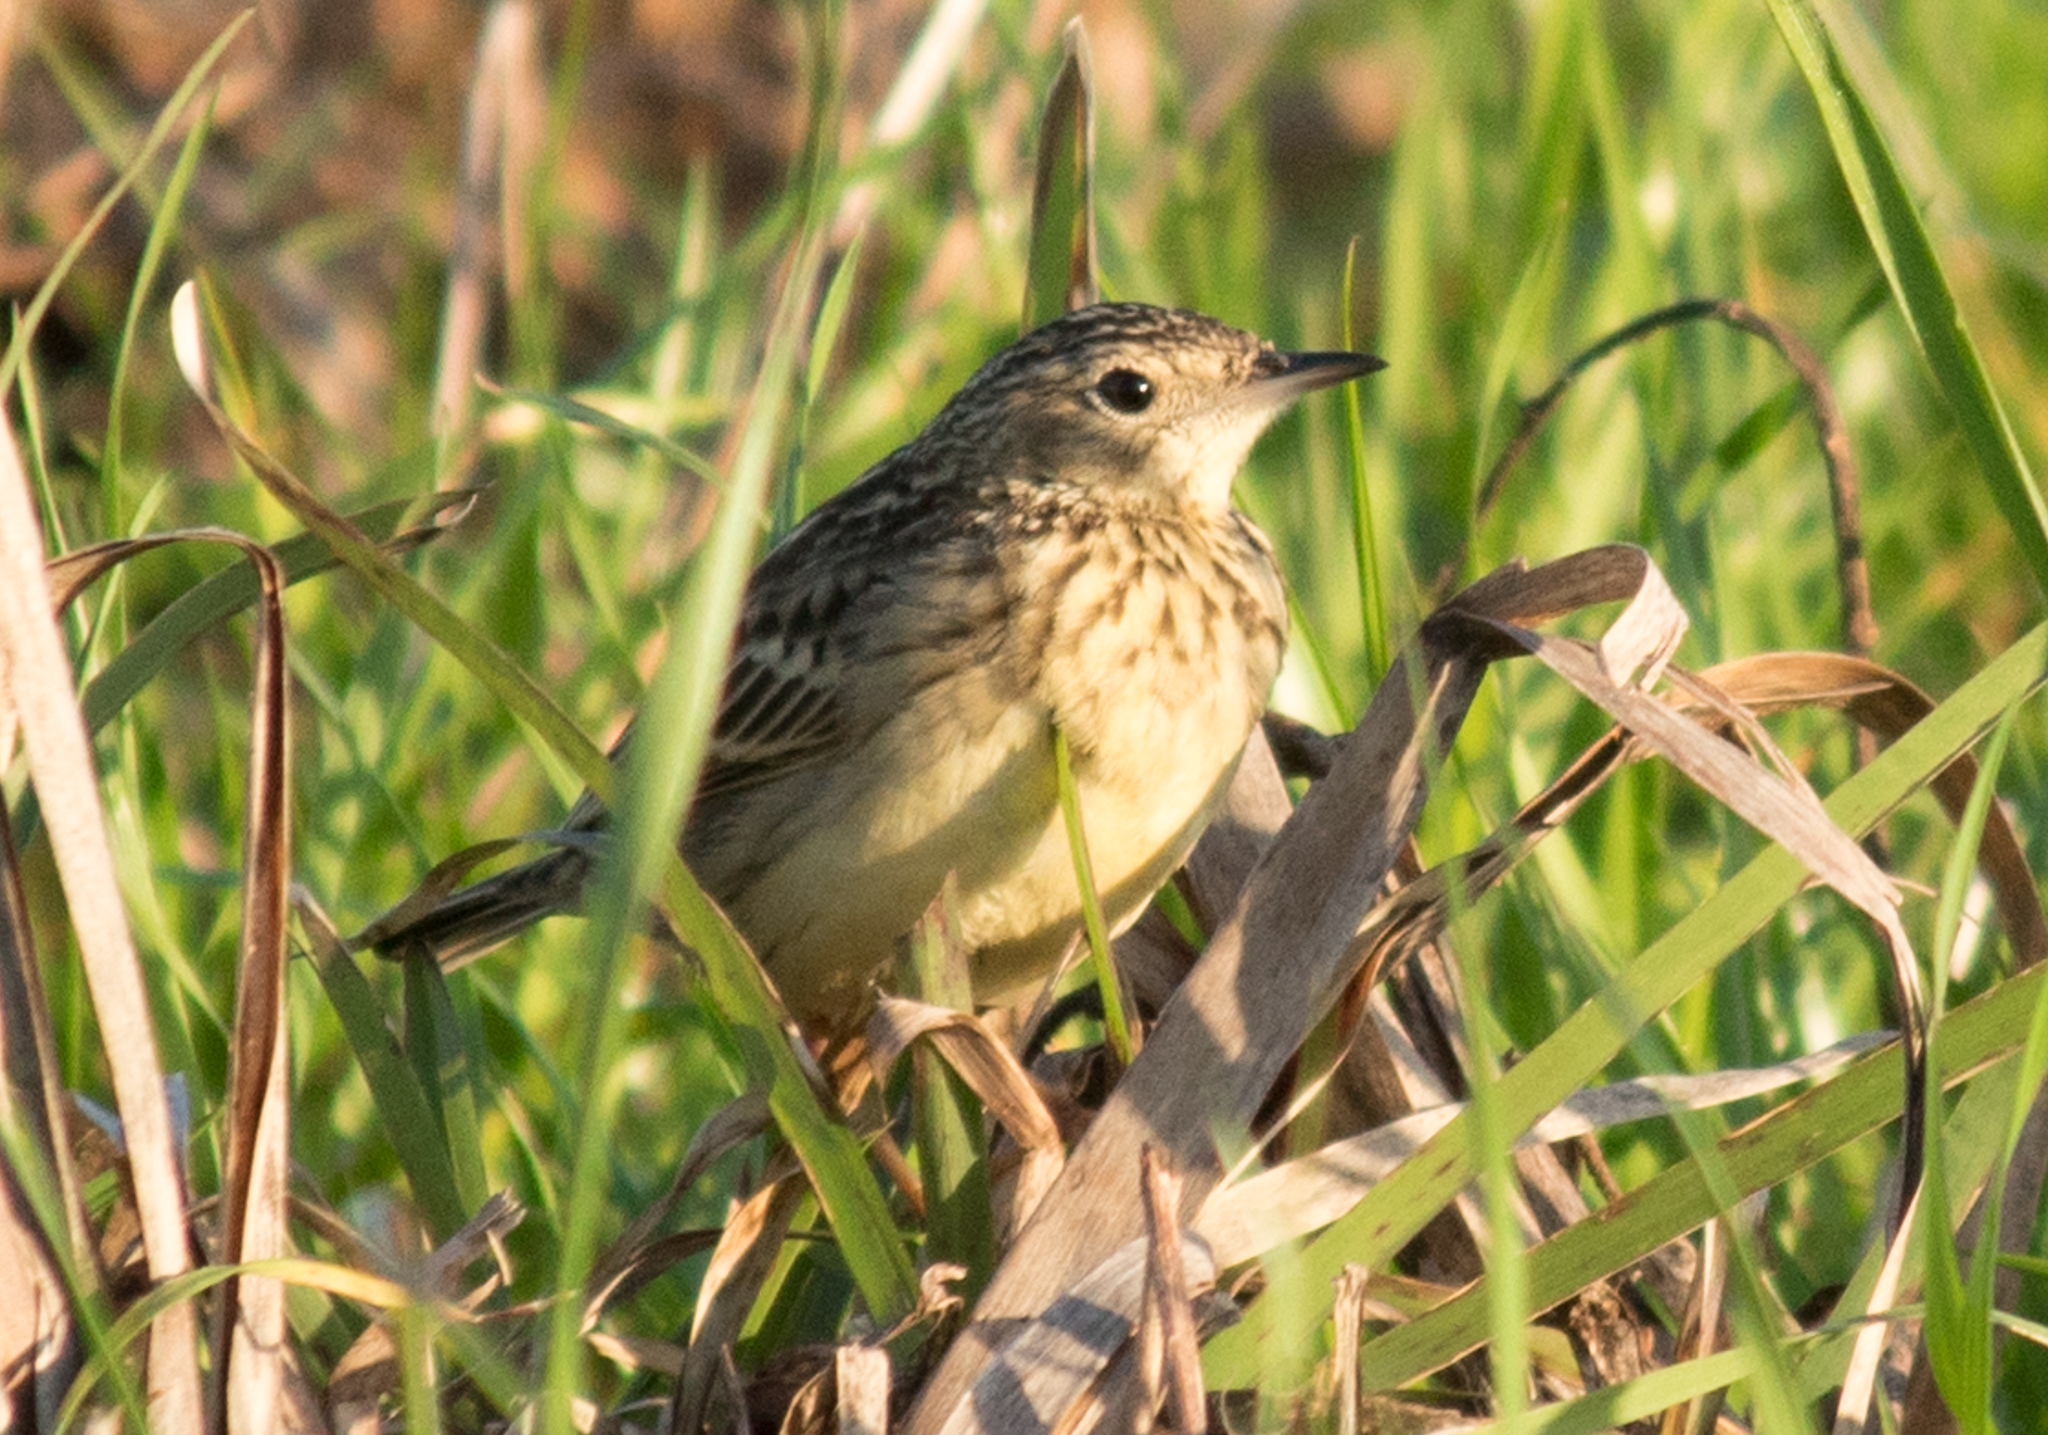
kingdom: Animalia
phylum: Chordata
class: Aves
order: Passeriformes
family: Motacillidae
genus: Anthus
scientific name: Anthus chii
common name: Yellowish pipit
